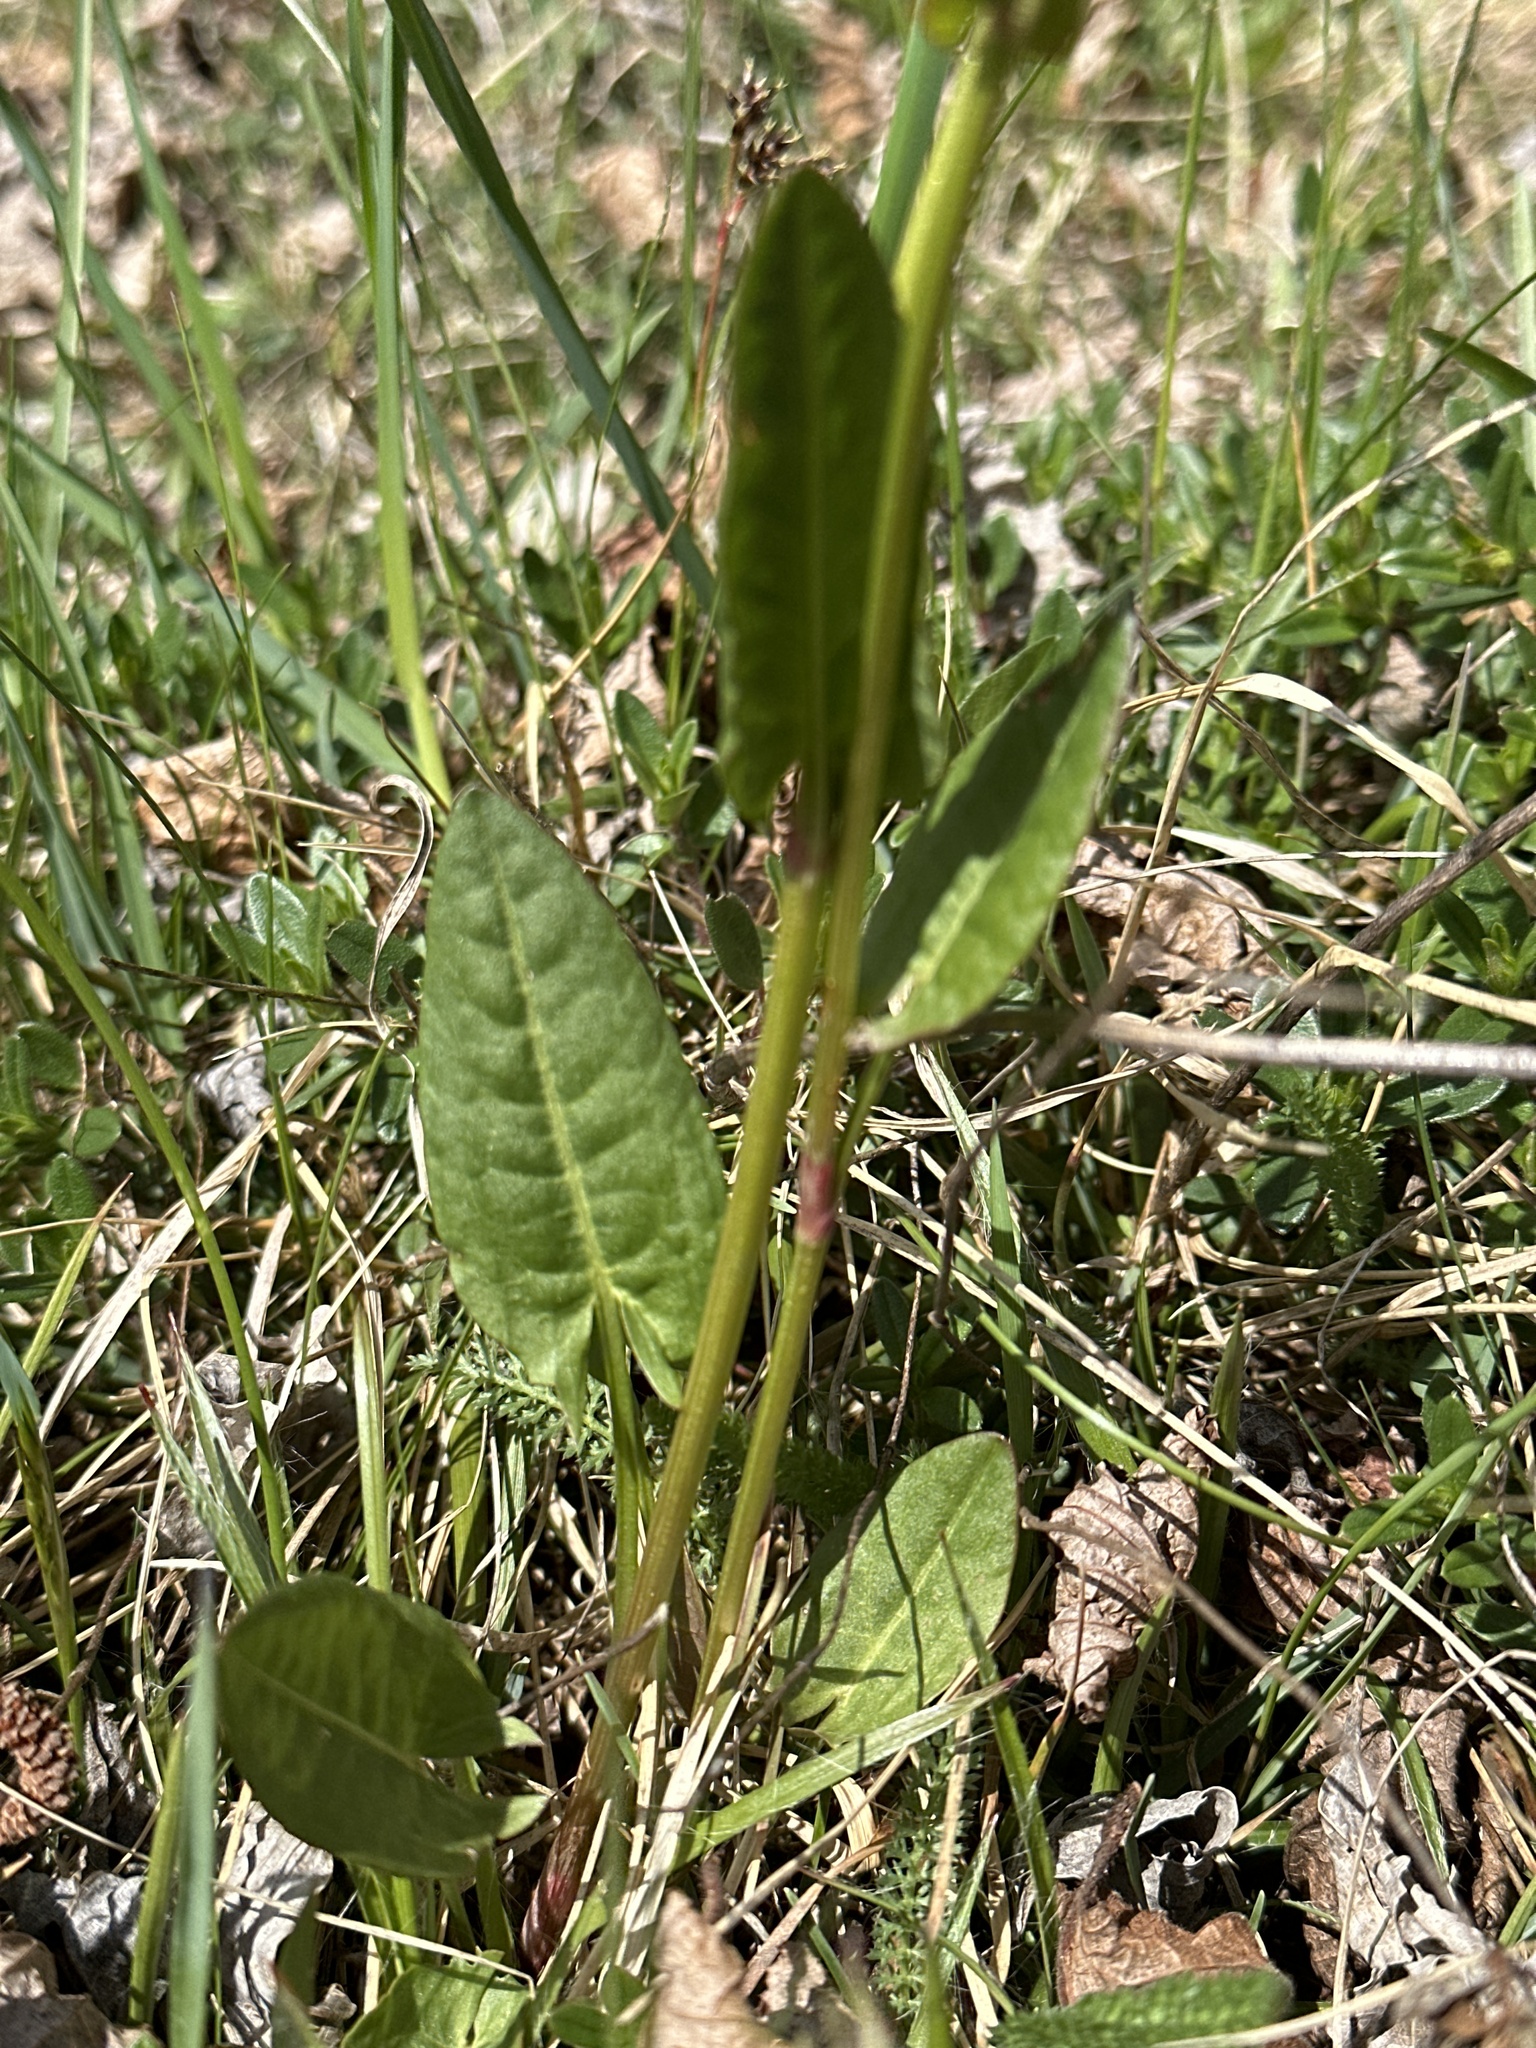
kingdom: Plantae
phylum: Tracheophyta
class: Magnoliopsida
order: Caryophyllales
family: Polygonaceae
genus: Rumex
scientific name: Rumex acetosa
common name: Garden sorrel
